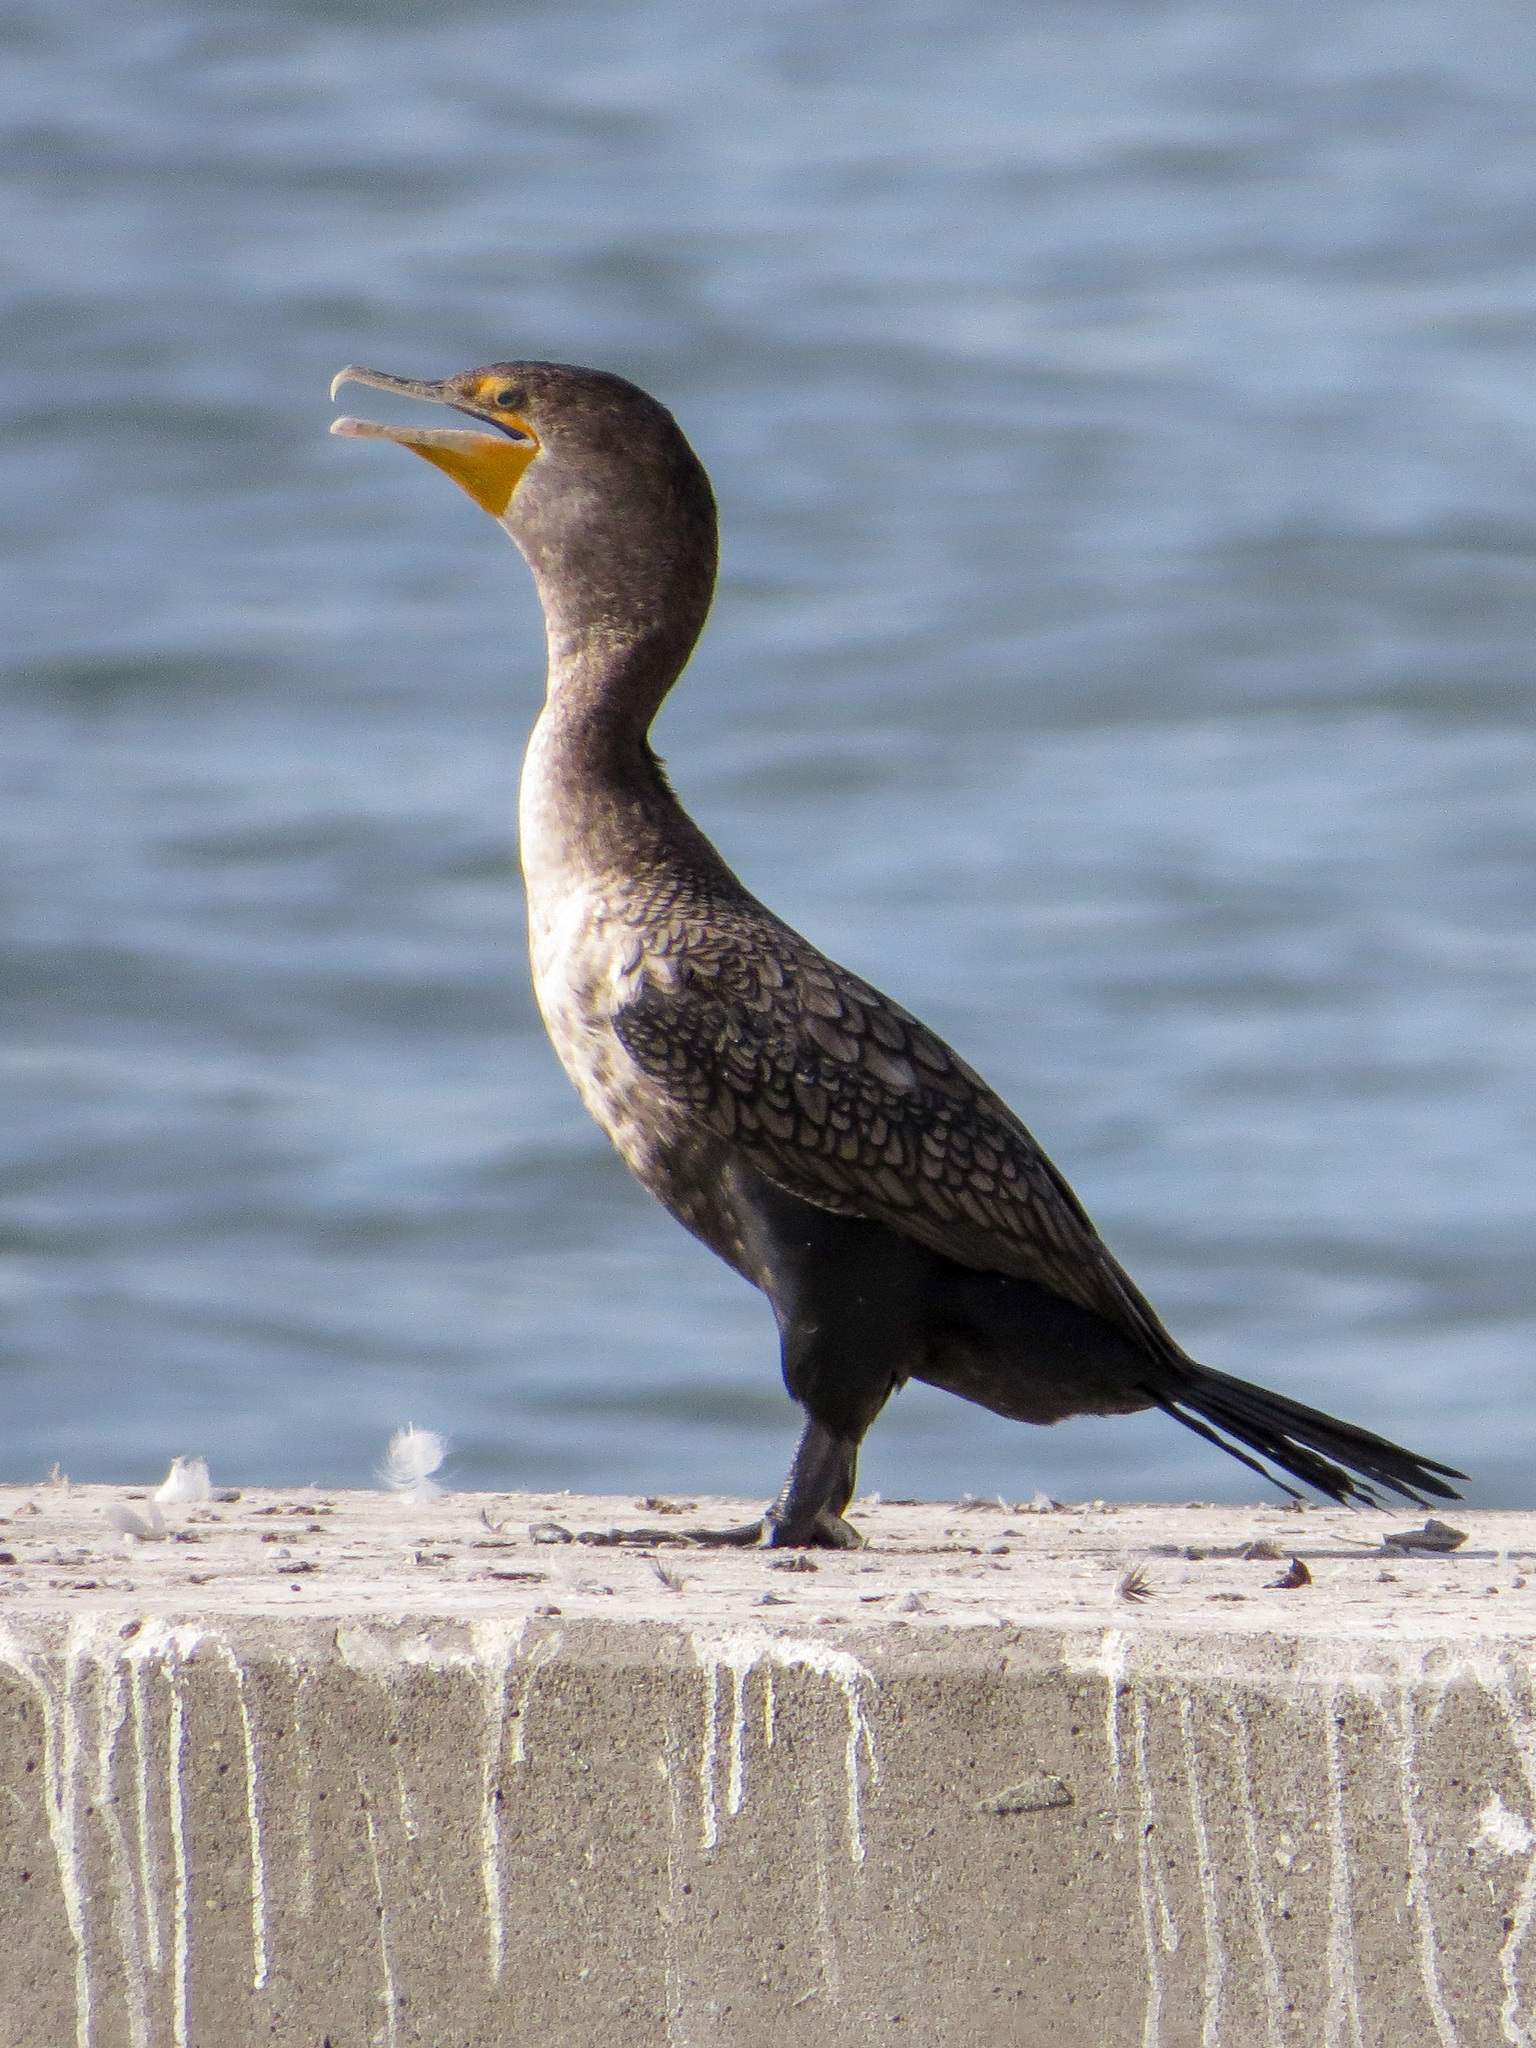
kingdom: Animalia
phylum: Chordata
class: Aves
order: Suliformes
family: Phalacrocoracidae
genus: Phalacrocorax
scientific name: Phalacrocorax auritus
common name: Double-crested cormorant
